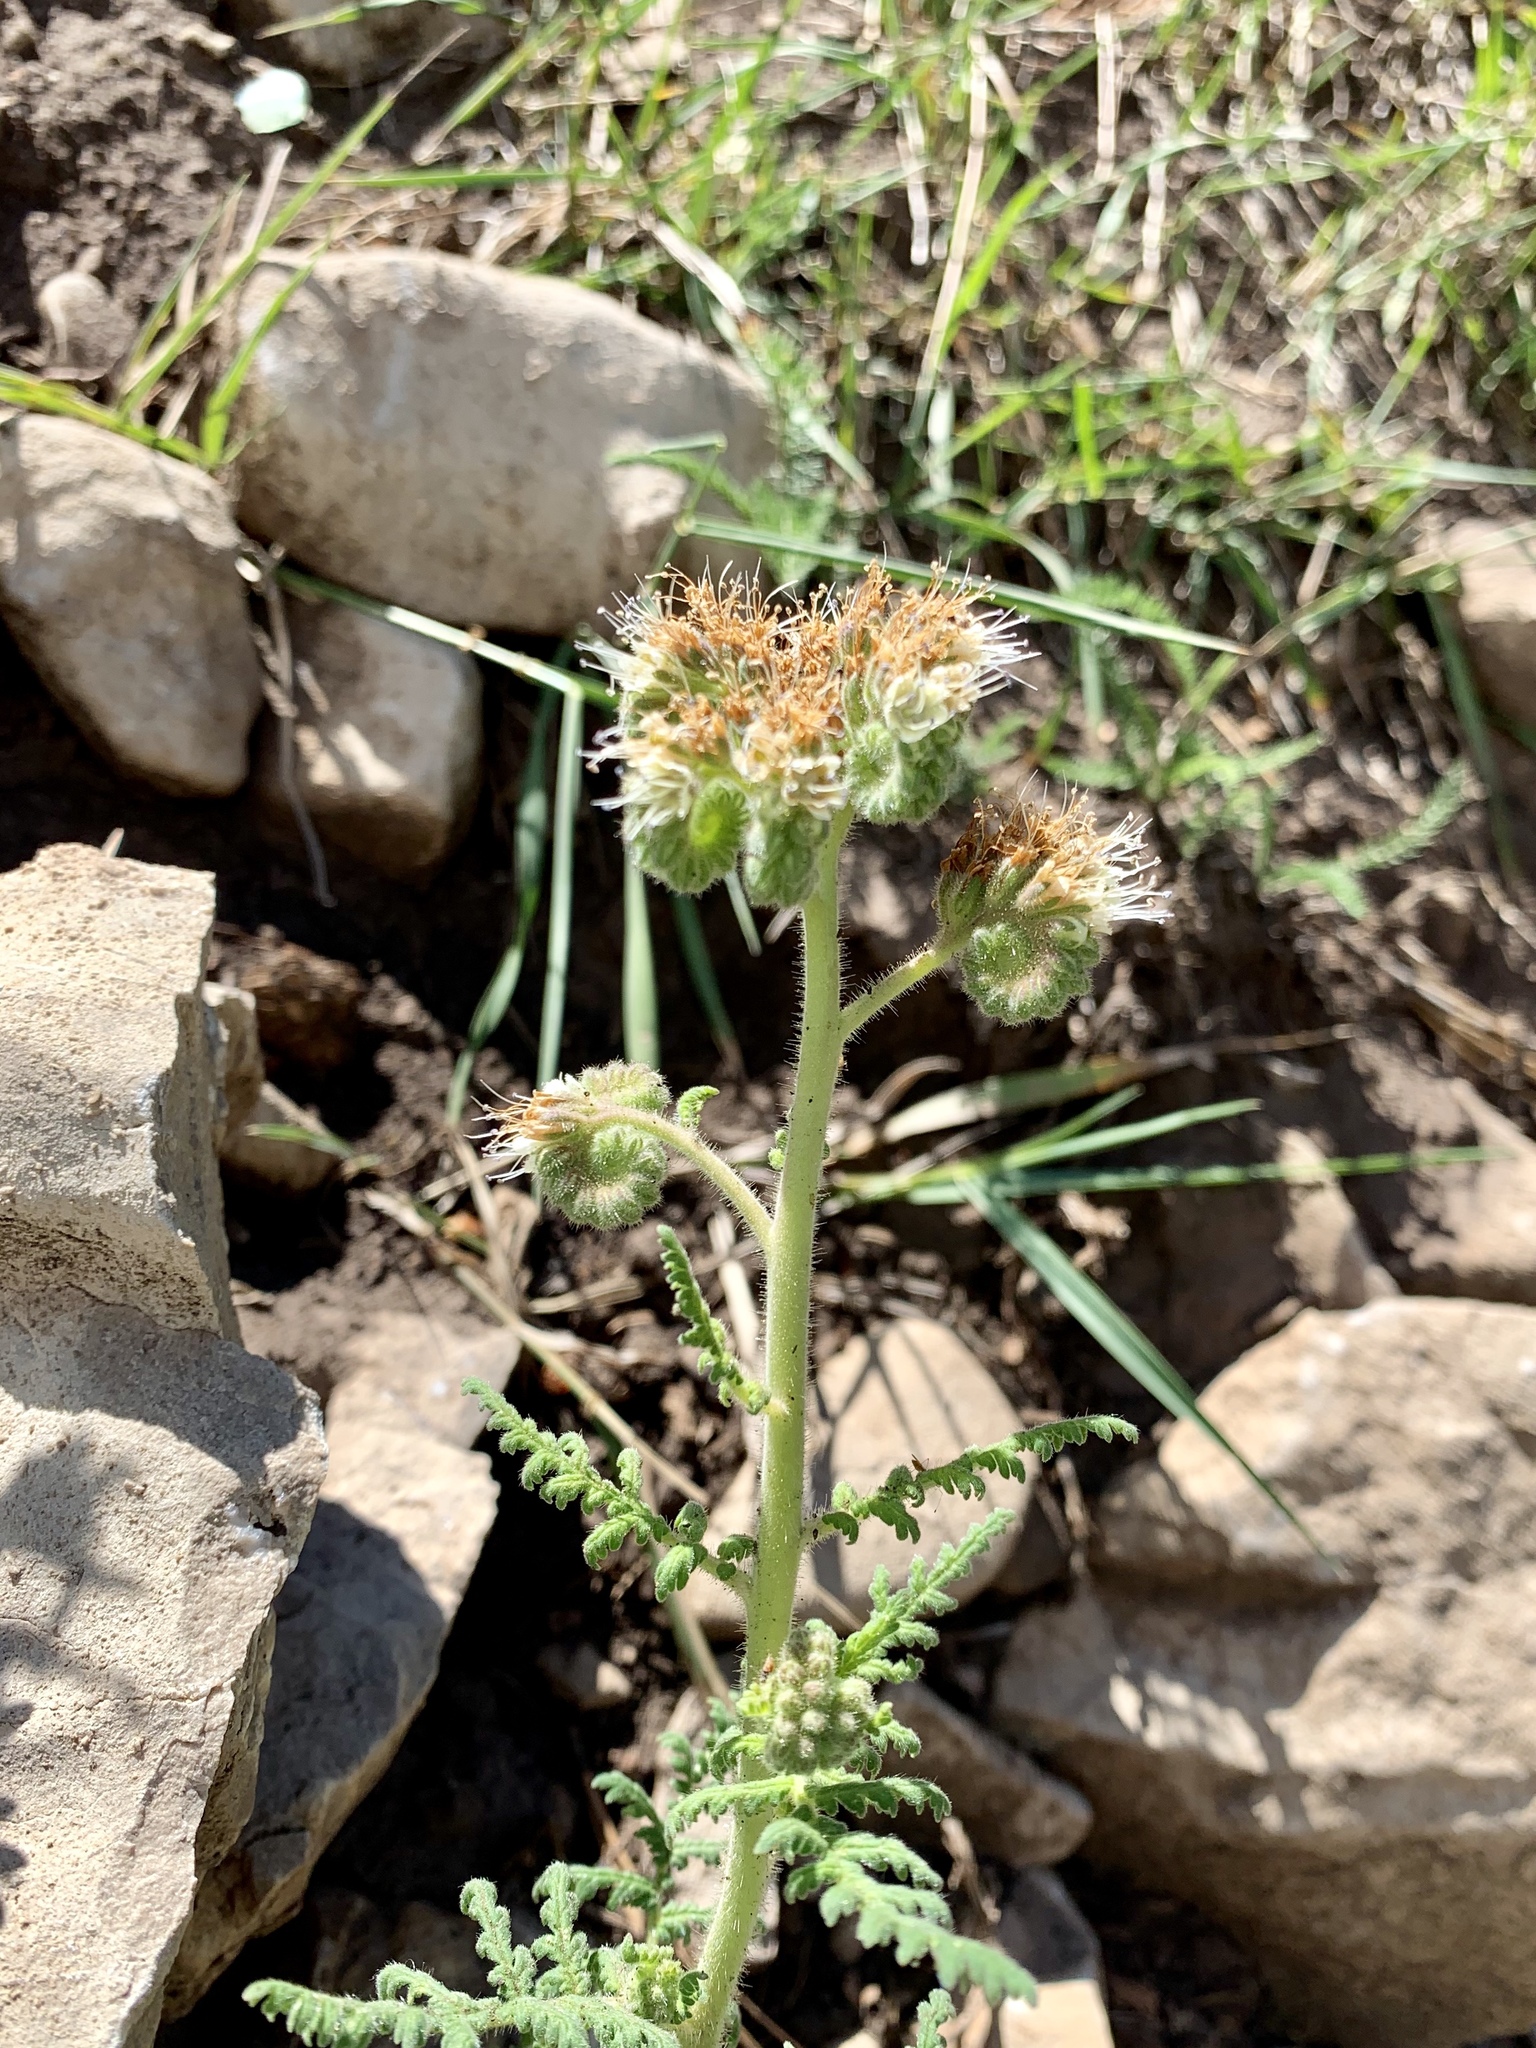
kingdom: Plantae
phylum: Tracheophyta
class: Magnoliopsida
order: Boraginales
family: Hydrophyllaceae
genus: Phacelia
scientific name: Phacelia alba
